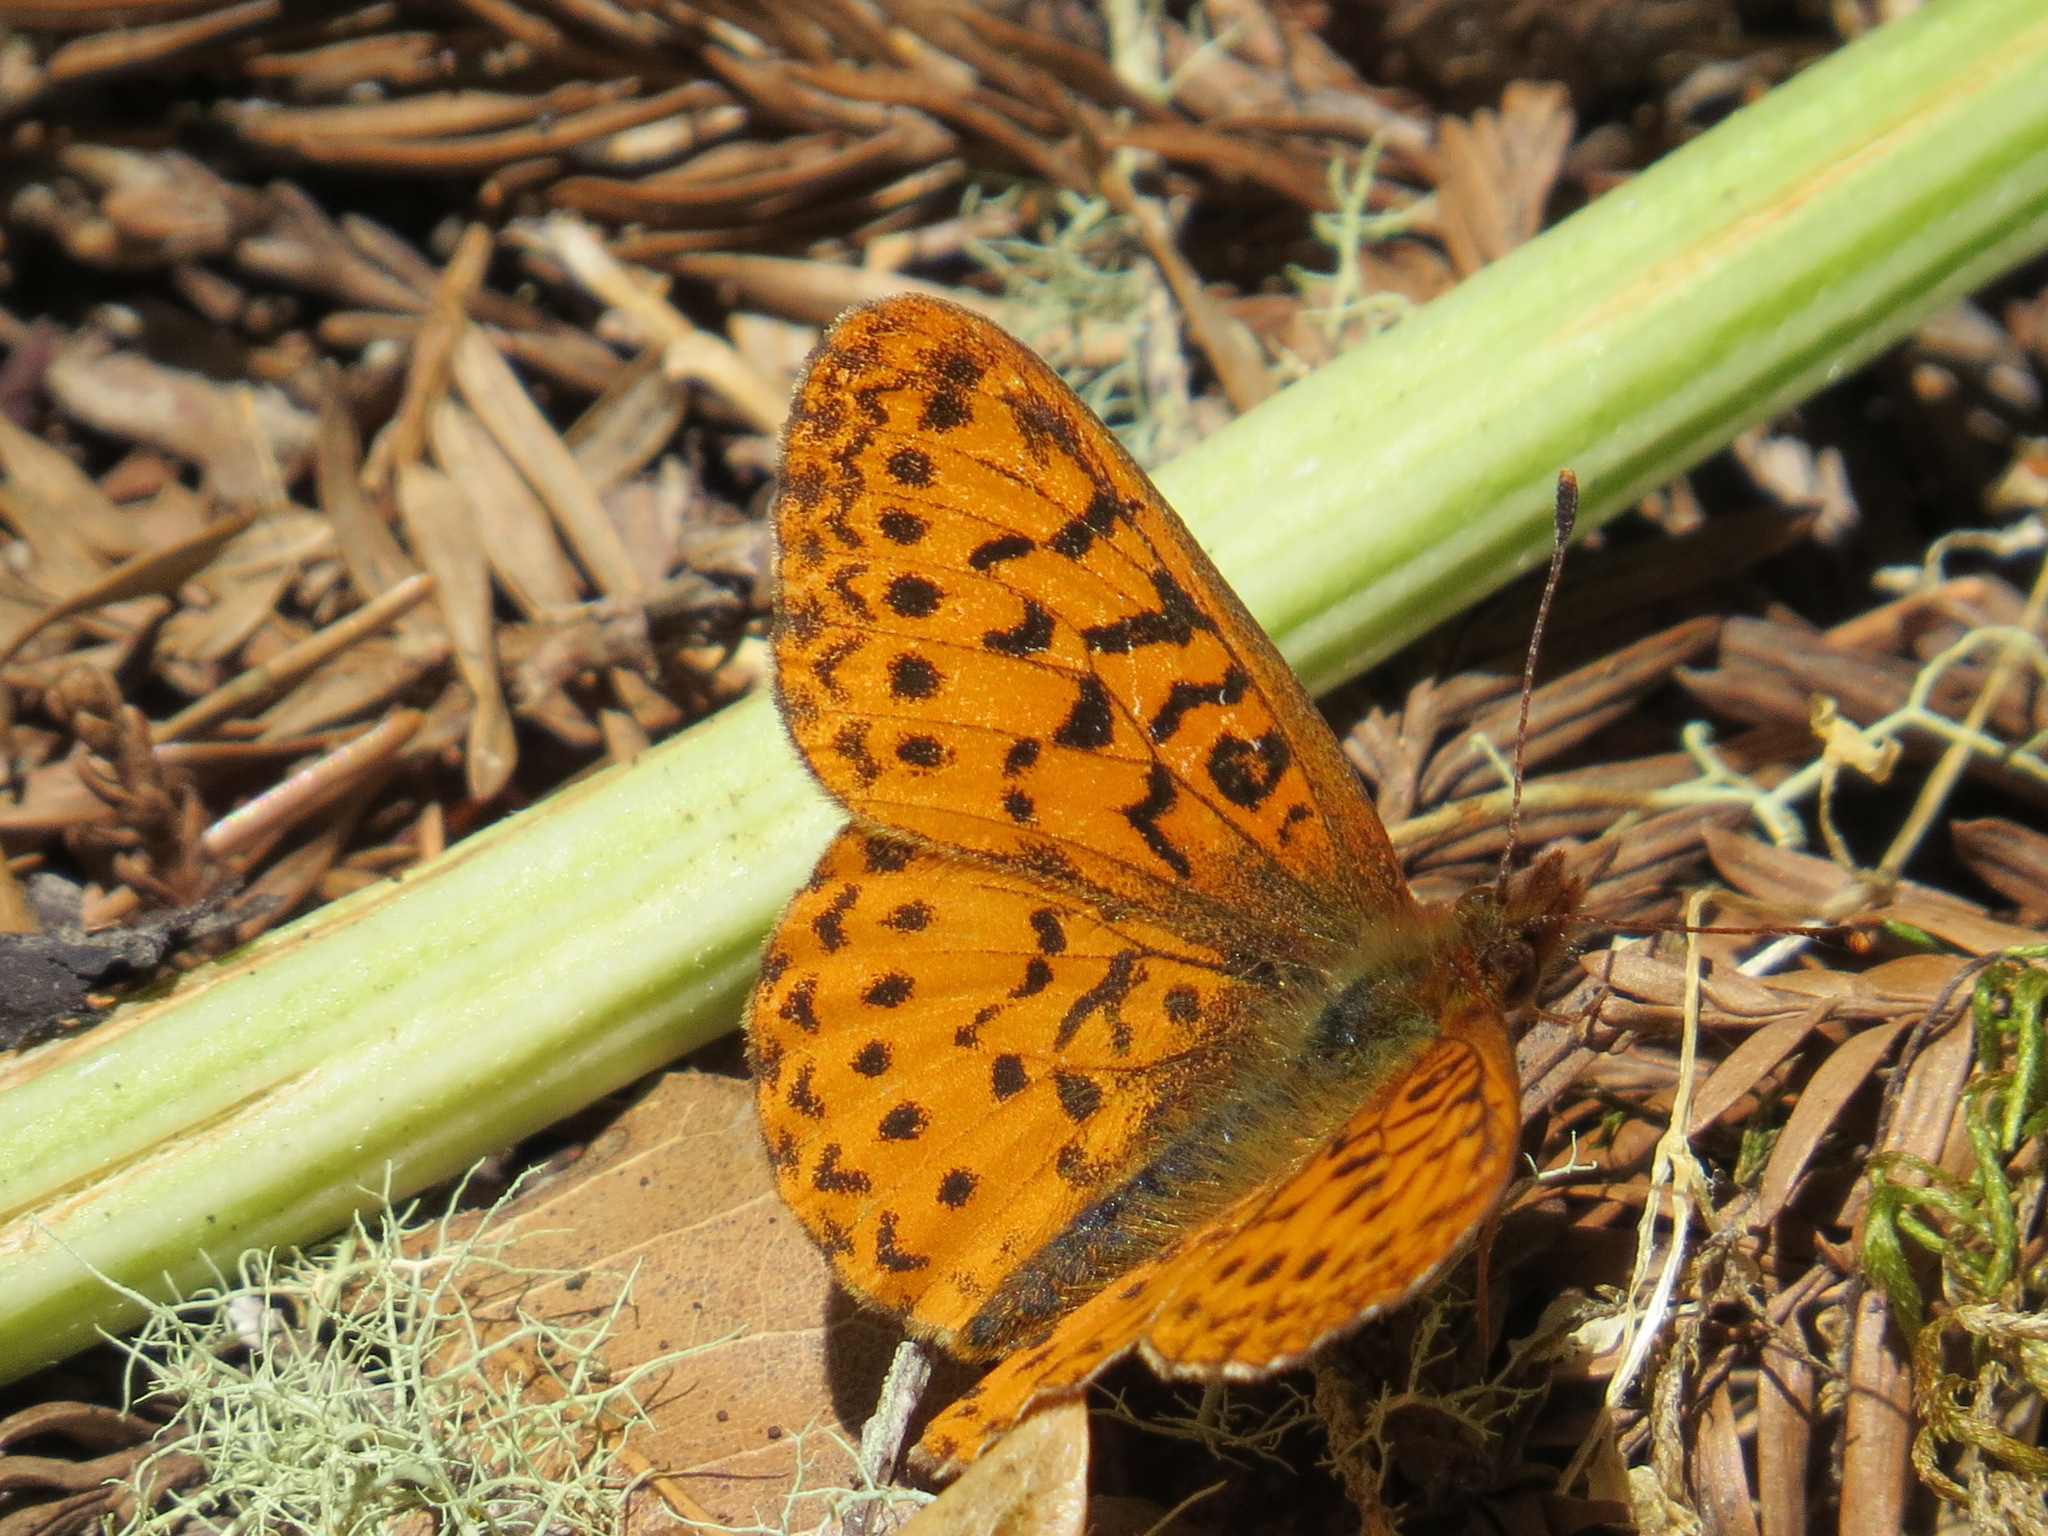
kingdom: Animalia
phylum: Arthropoda
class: Insecta
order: Lepidoptera
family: Nymphalidae
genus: Boloria
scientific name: Boloria epithore
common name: Pacific fritillary
